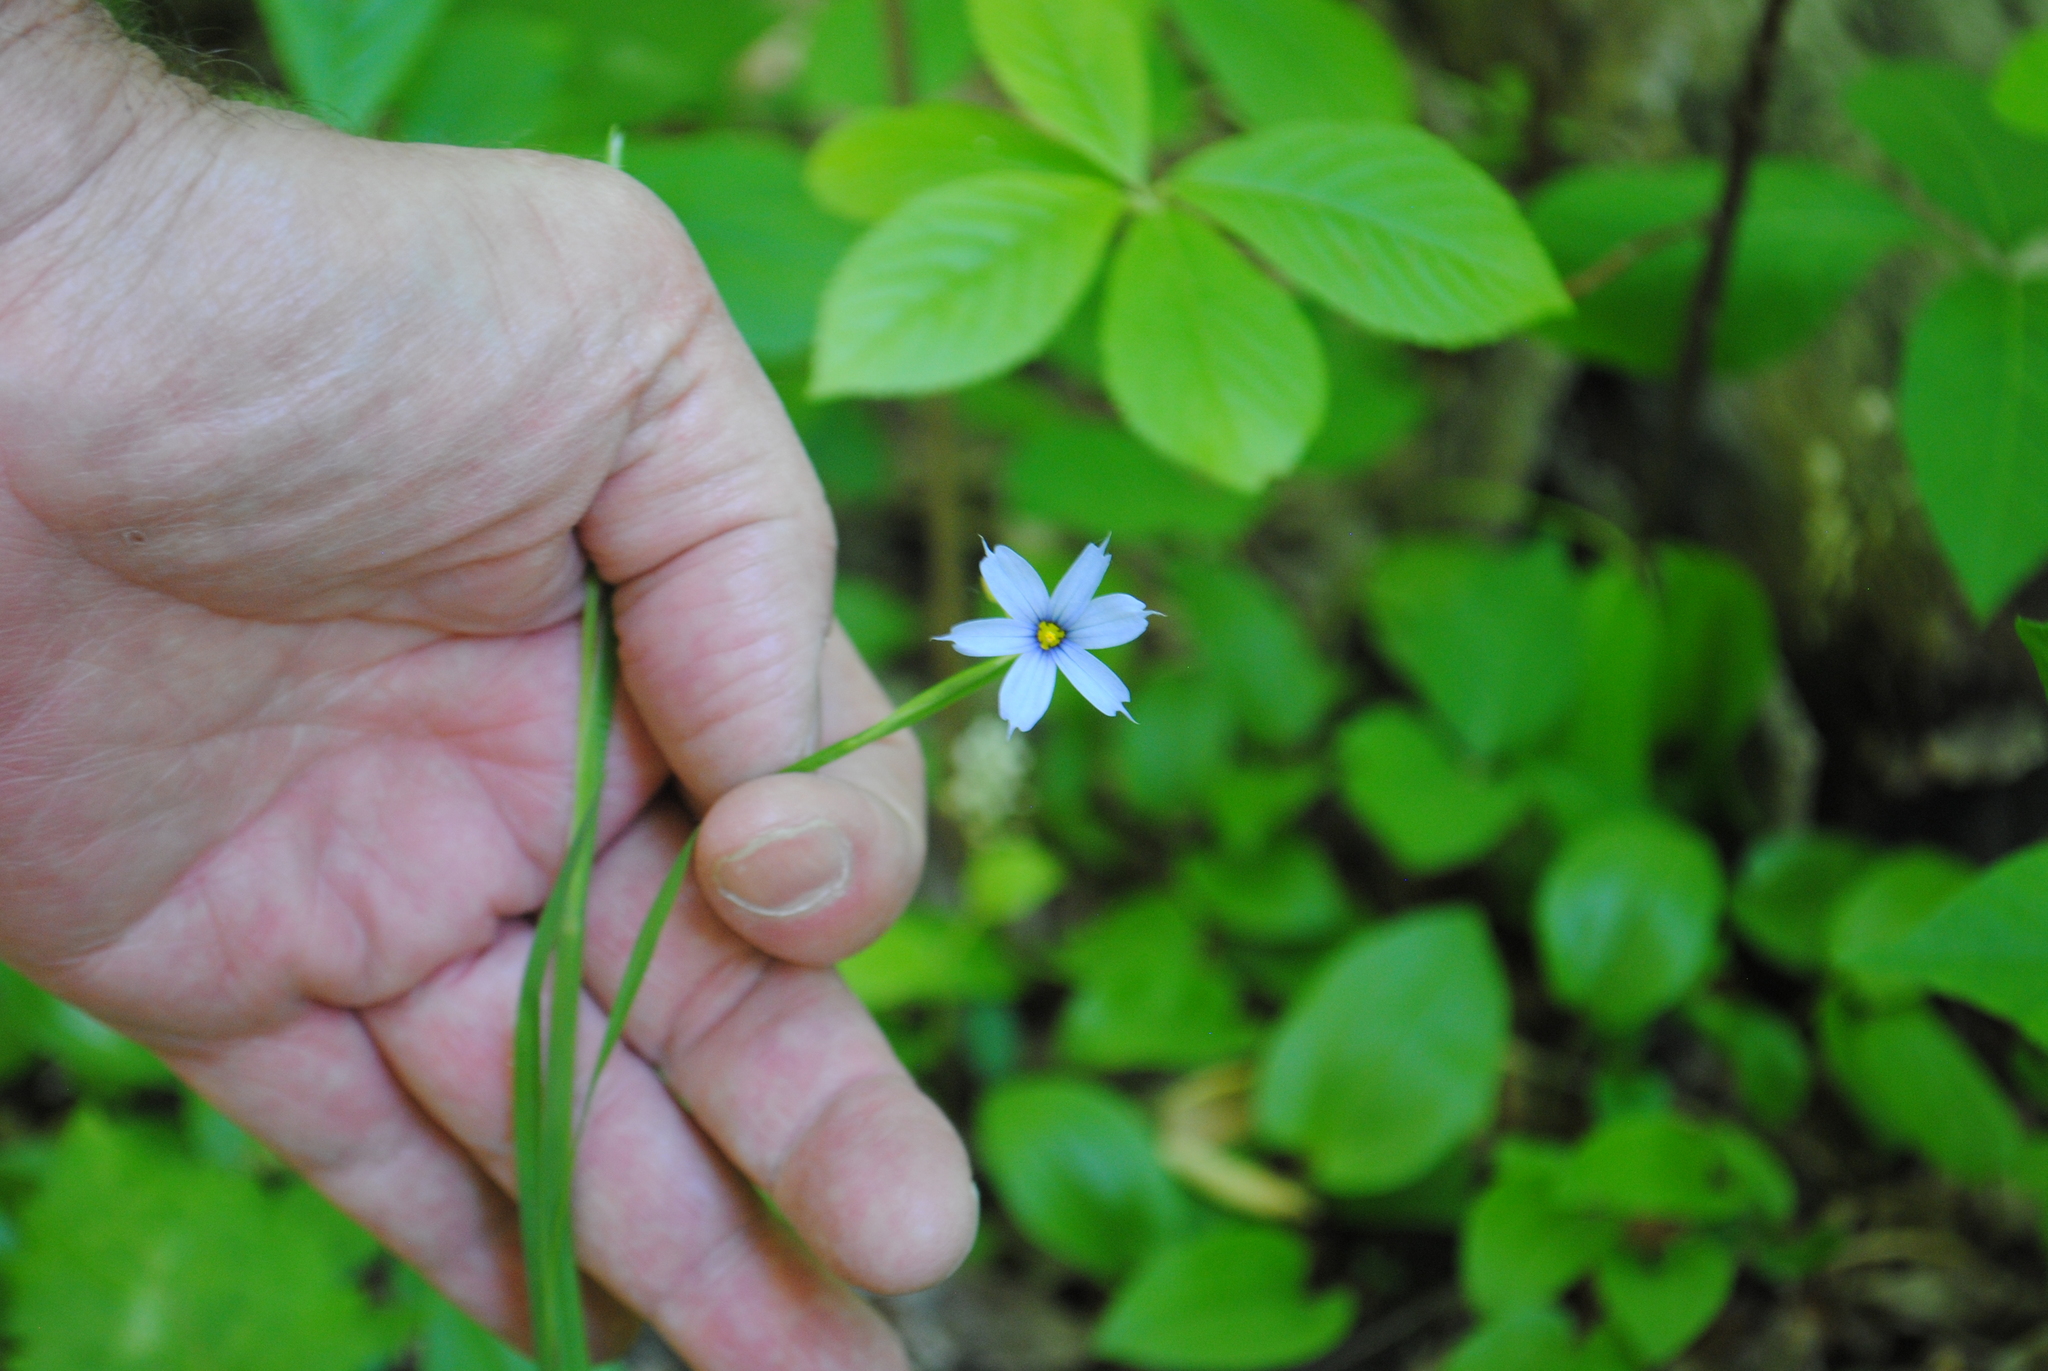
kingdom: Plantae
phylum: Tracheophyta
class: Liliopsida
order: Asparagales
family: Iridaceae
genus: Sisyrinchium
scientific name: Sisyrinchium angustifolium
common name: Narrow-leaf blue-eyed-grass
